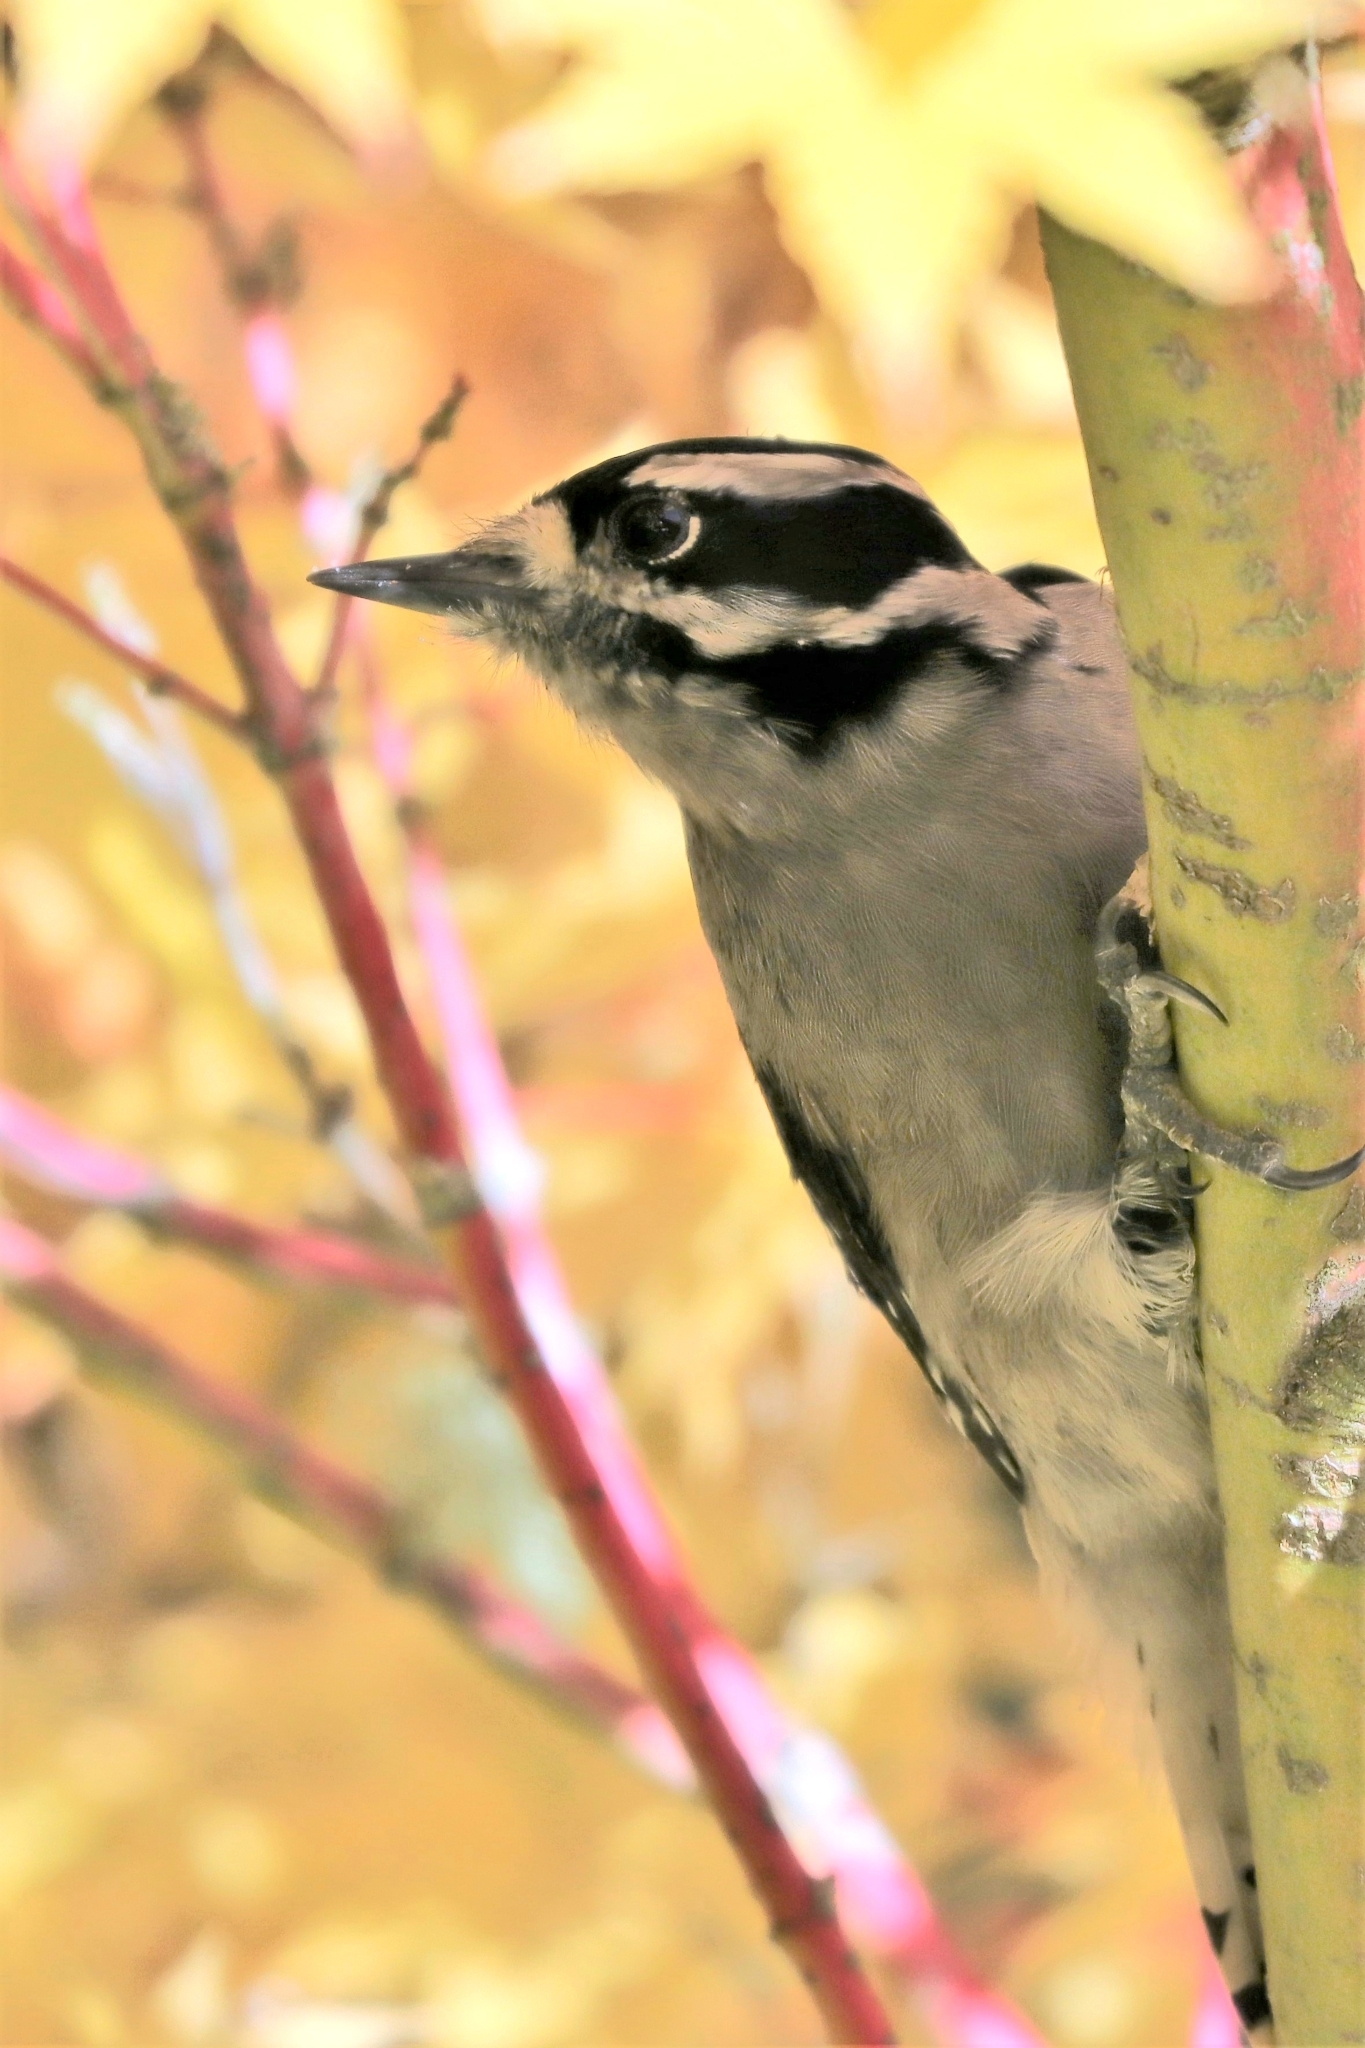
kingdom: Animalia
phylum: Chordata
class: Aves
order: Piciformes
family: Picidae
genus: Dryobates
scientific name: Dryobates pubescens
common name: Downy woodpecker
